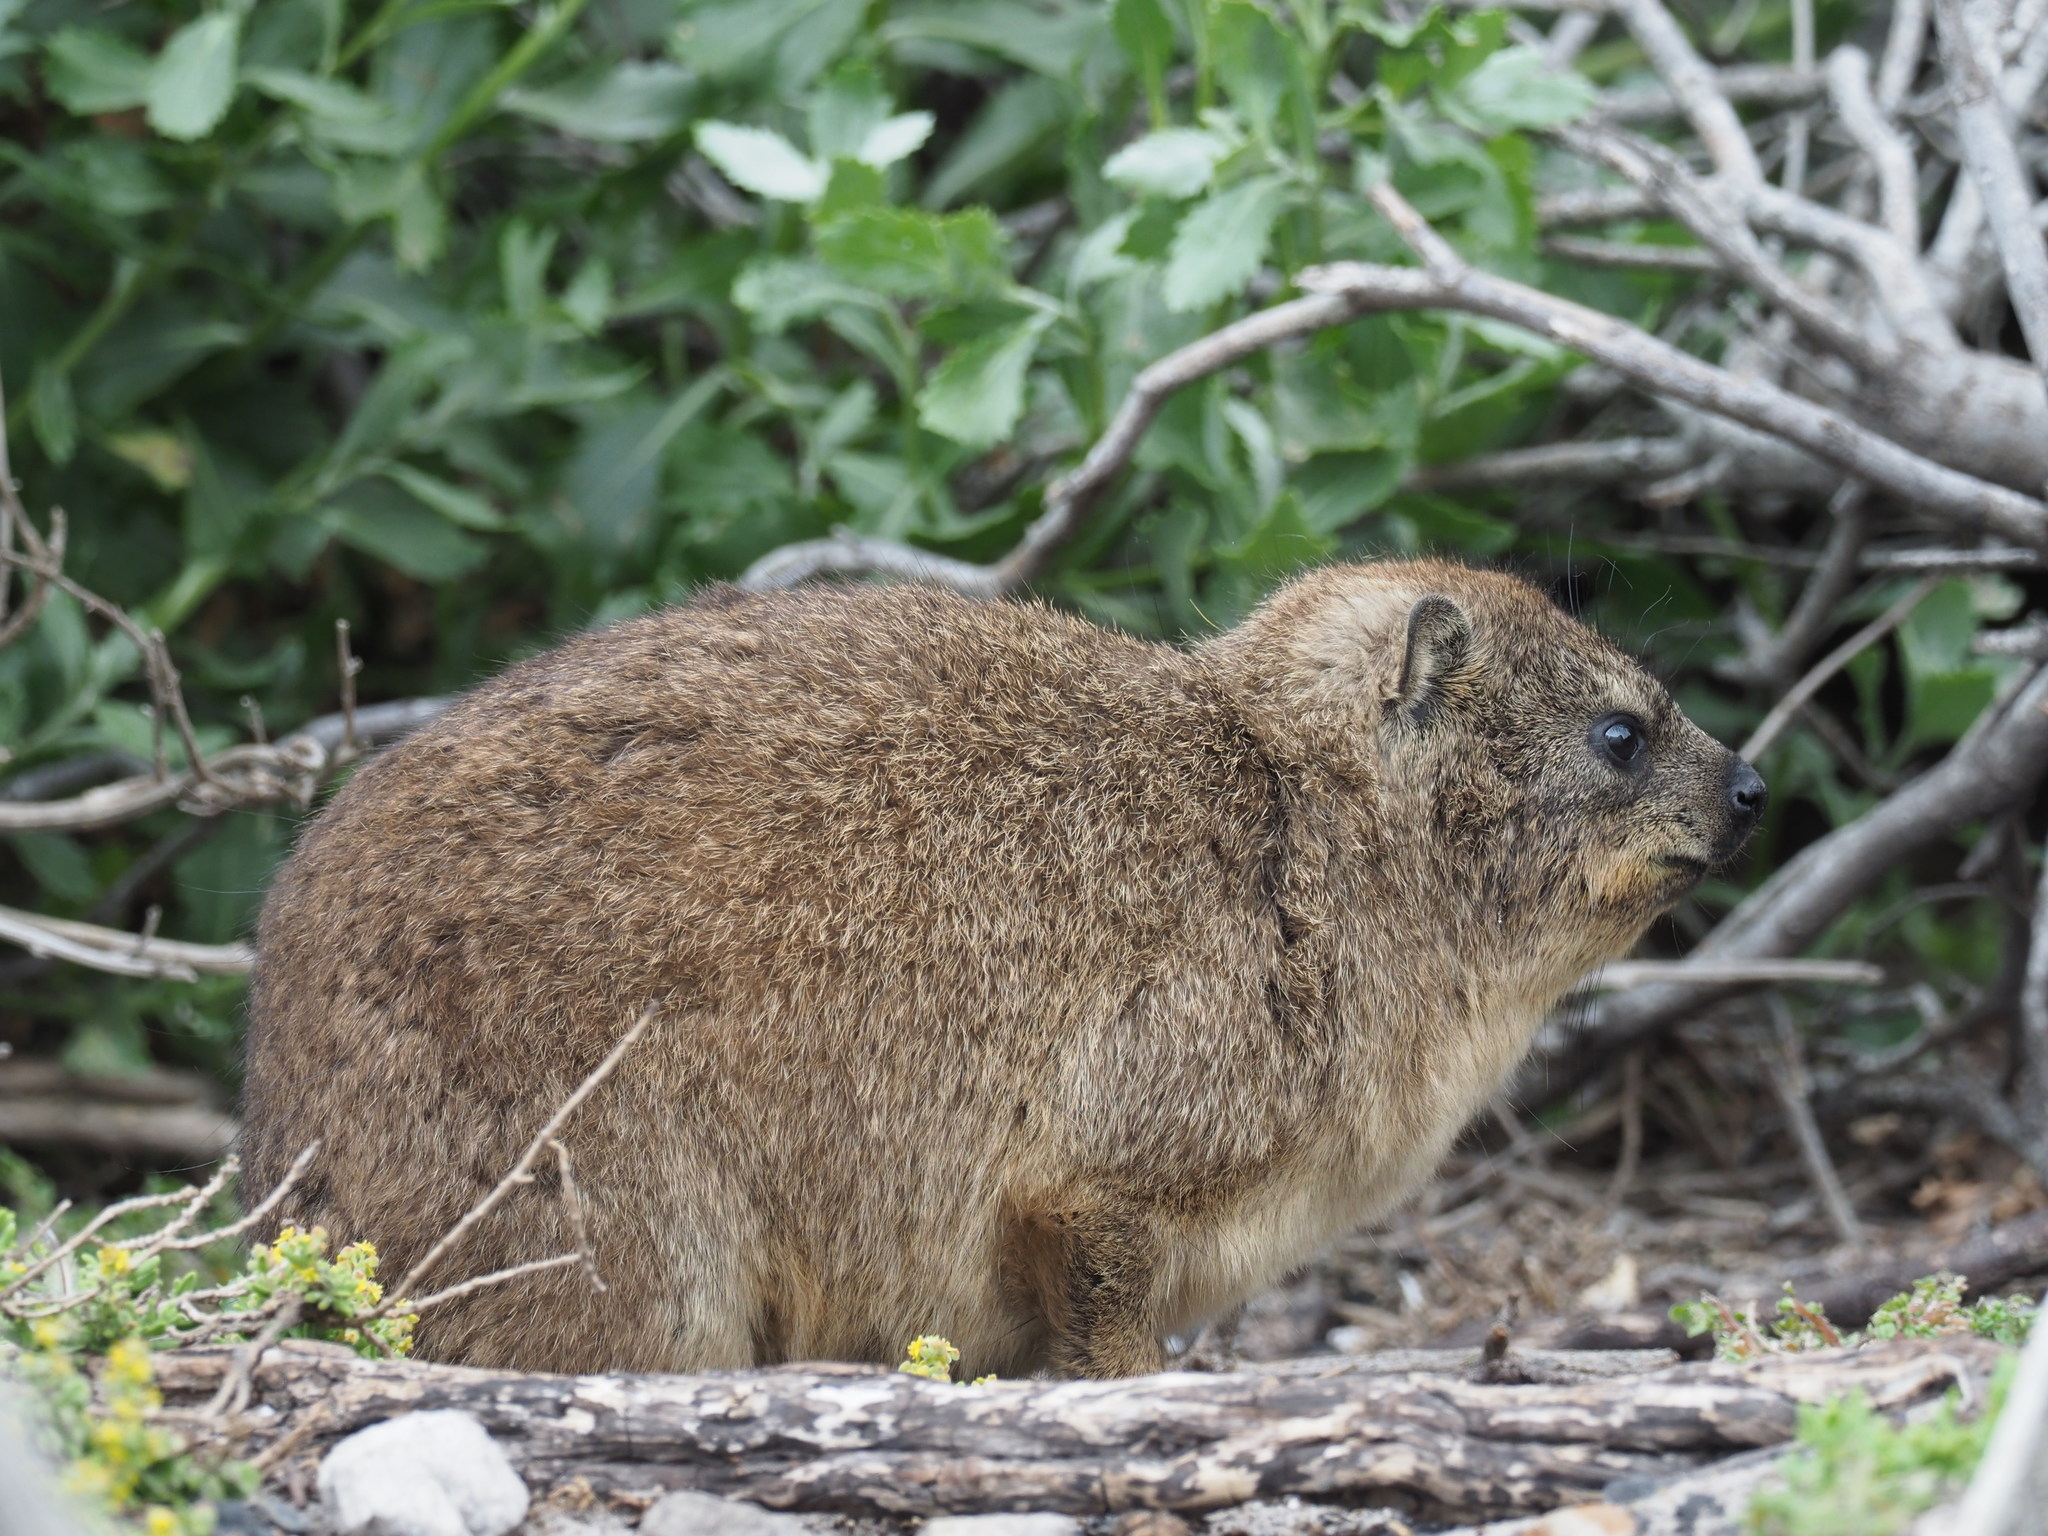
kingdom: Animalia
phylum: Chordata
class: Mammalia
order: Hyracoidea
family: Procaviidae
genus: Procavia
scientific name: Procavia capensis
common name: Rock hyrax
